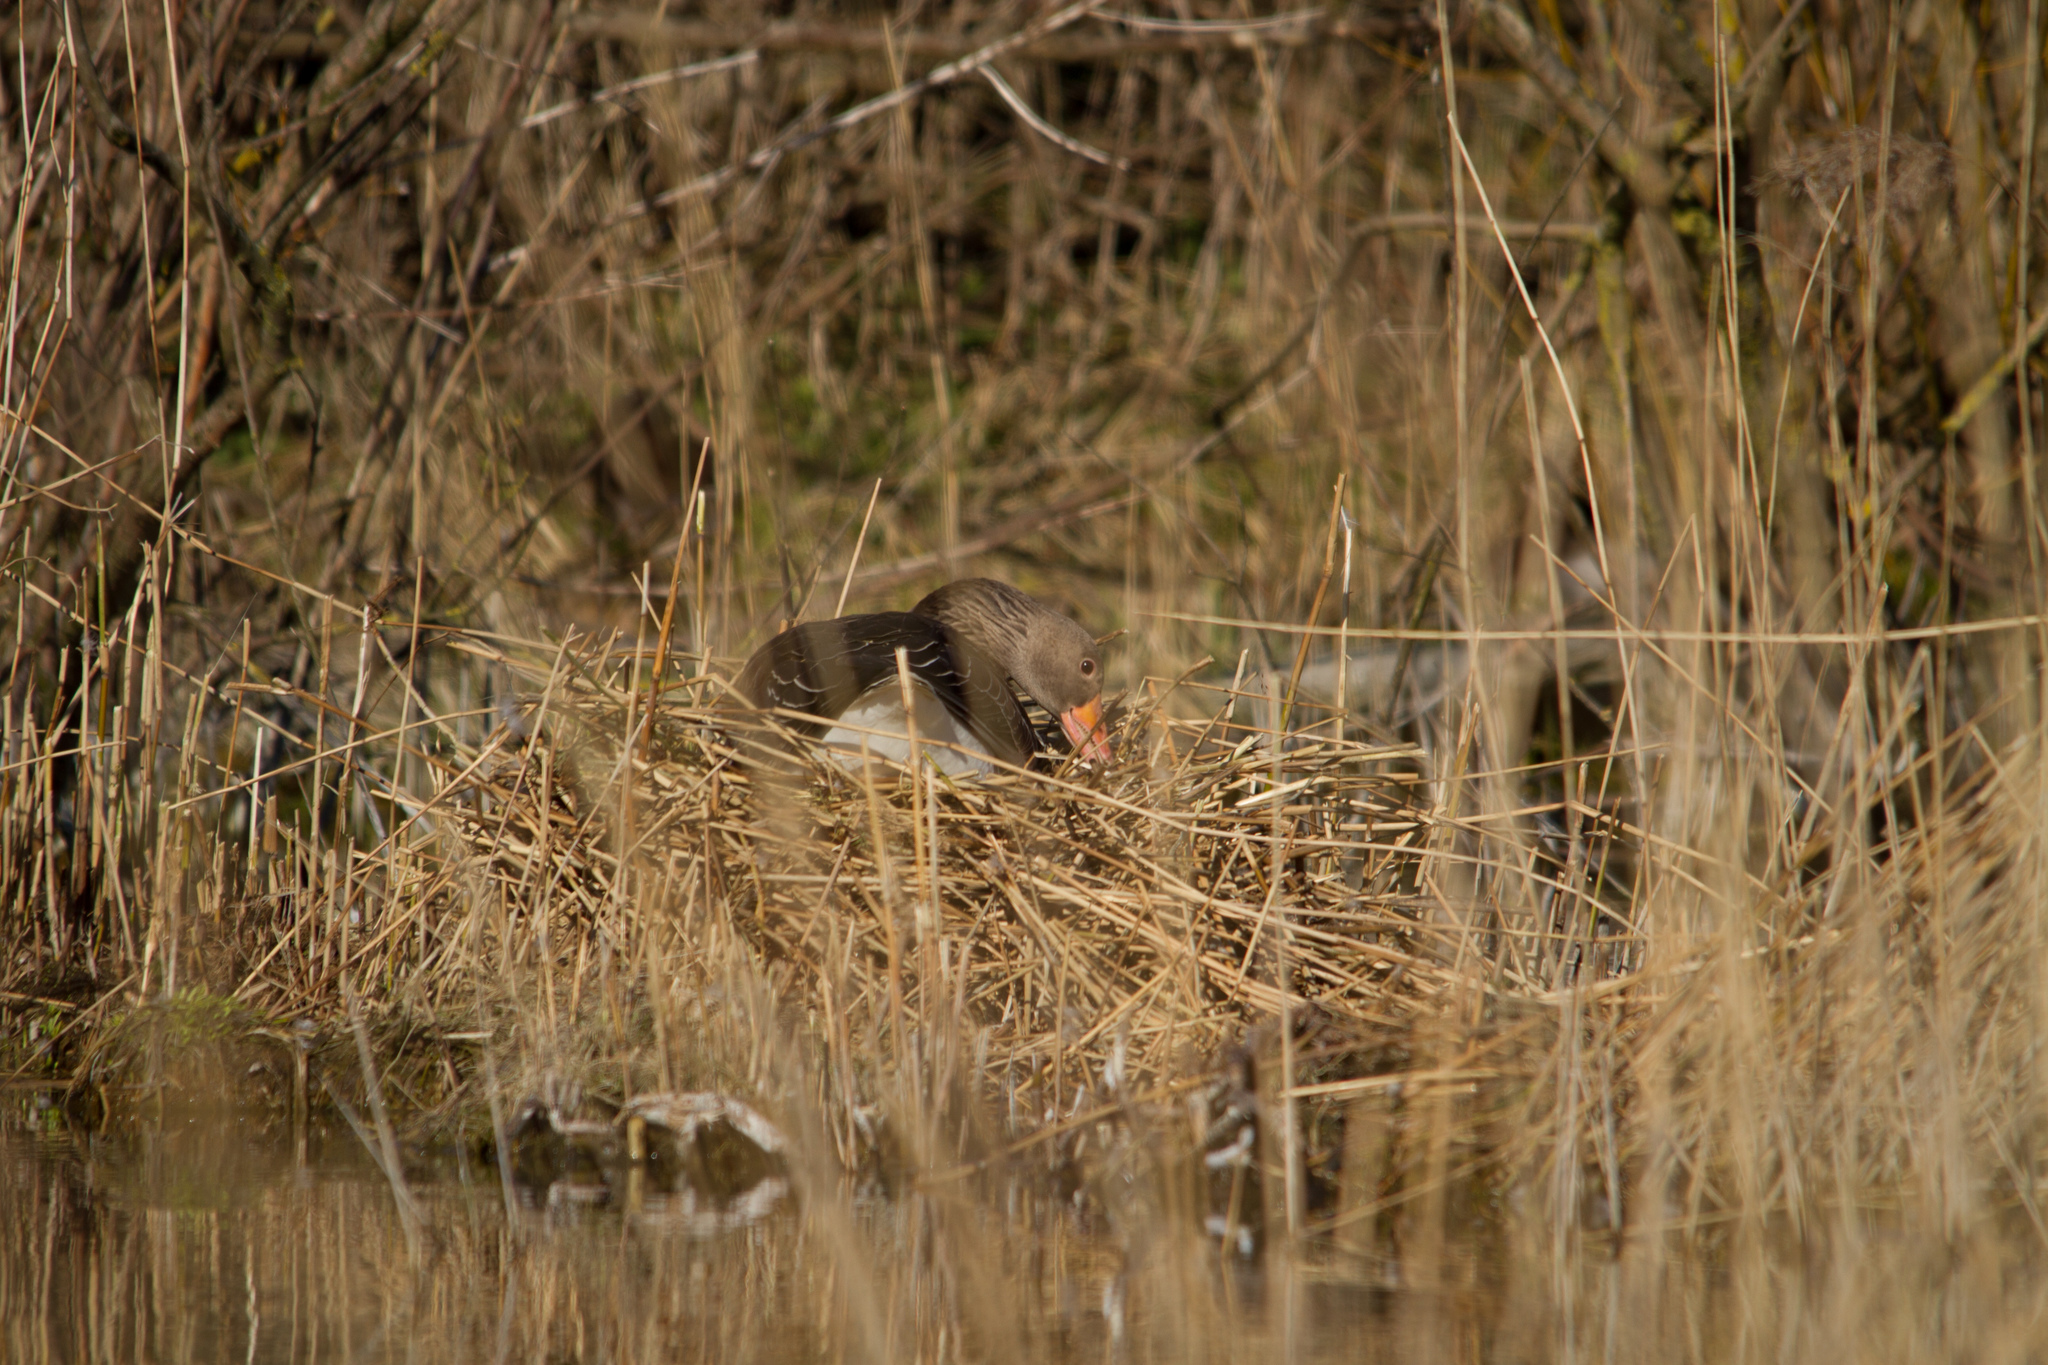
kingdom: Animalia
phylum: Chordata
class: Aves
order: Anseriformes
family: Anatidae
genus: Anser
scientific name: Anser anser
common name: Greylag goose
